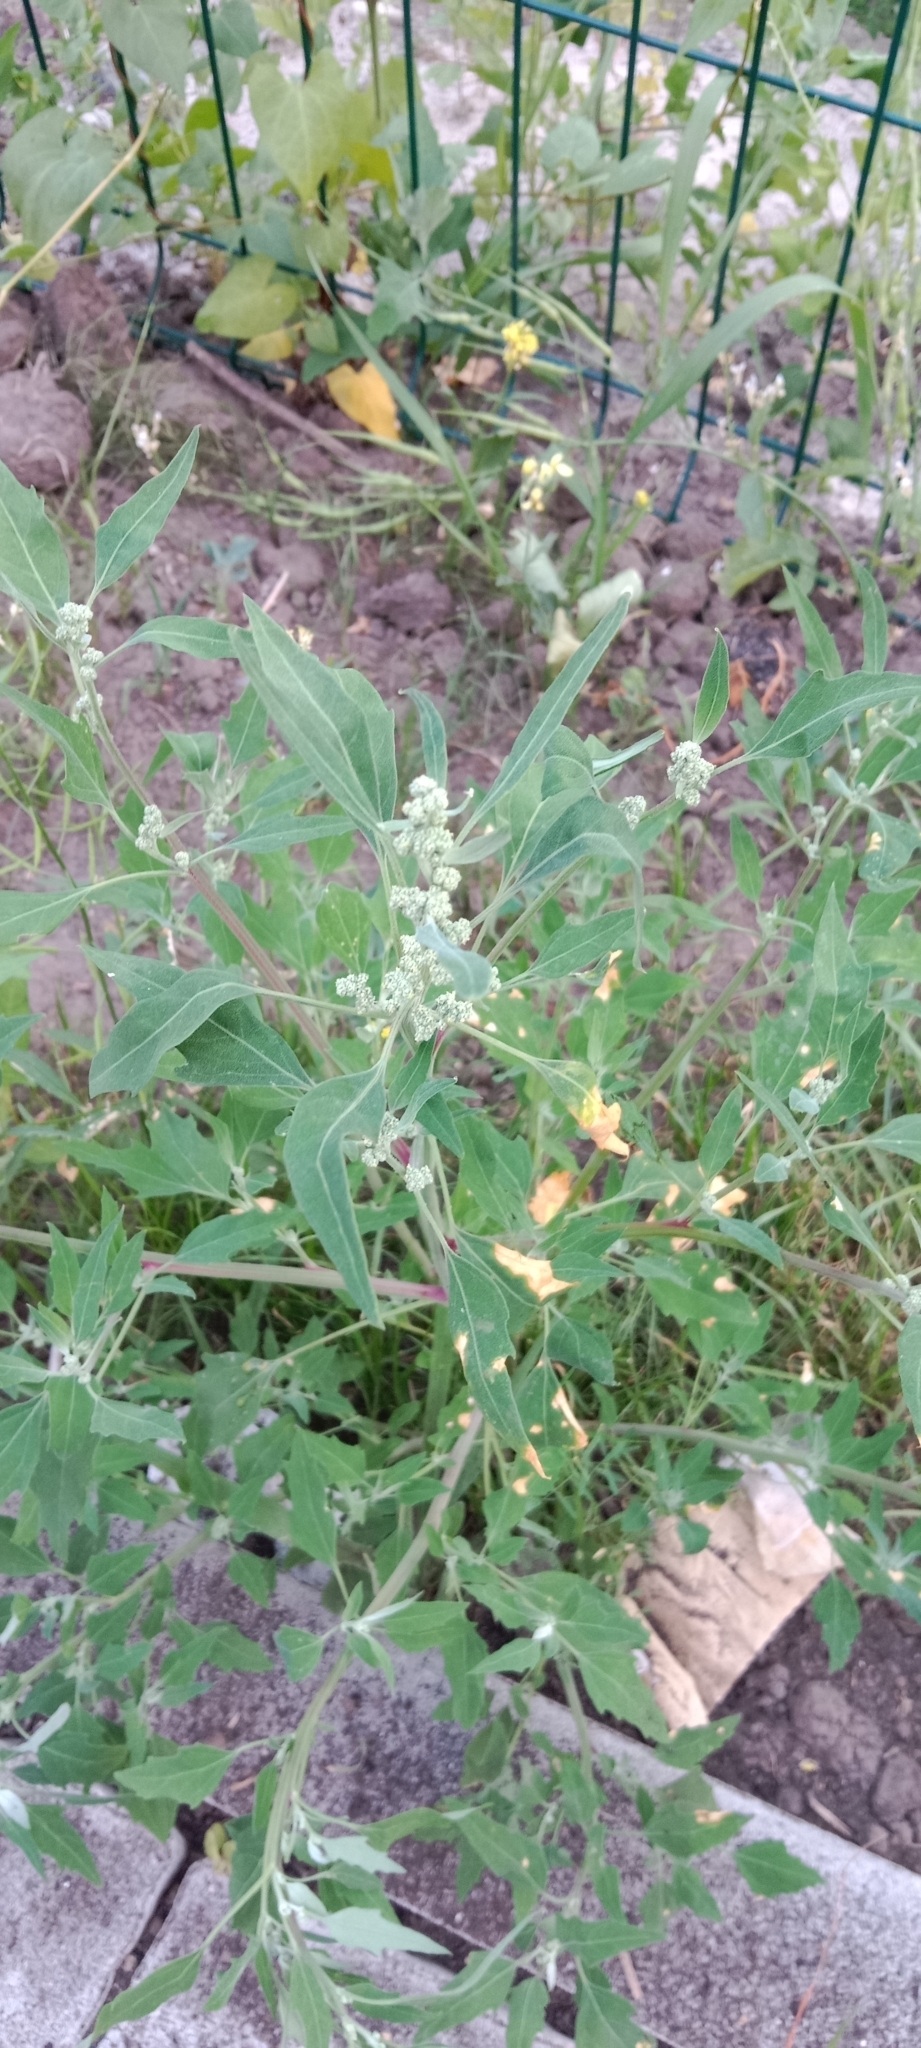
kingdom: Plantae
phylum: Tracheophyta
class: Magnoliopsida
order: Caryophyllales
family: Amaranthaceae
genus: Chenopodium
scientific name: Chenopodium album
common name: Fat-hen
